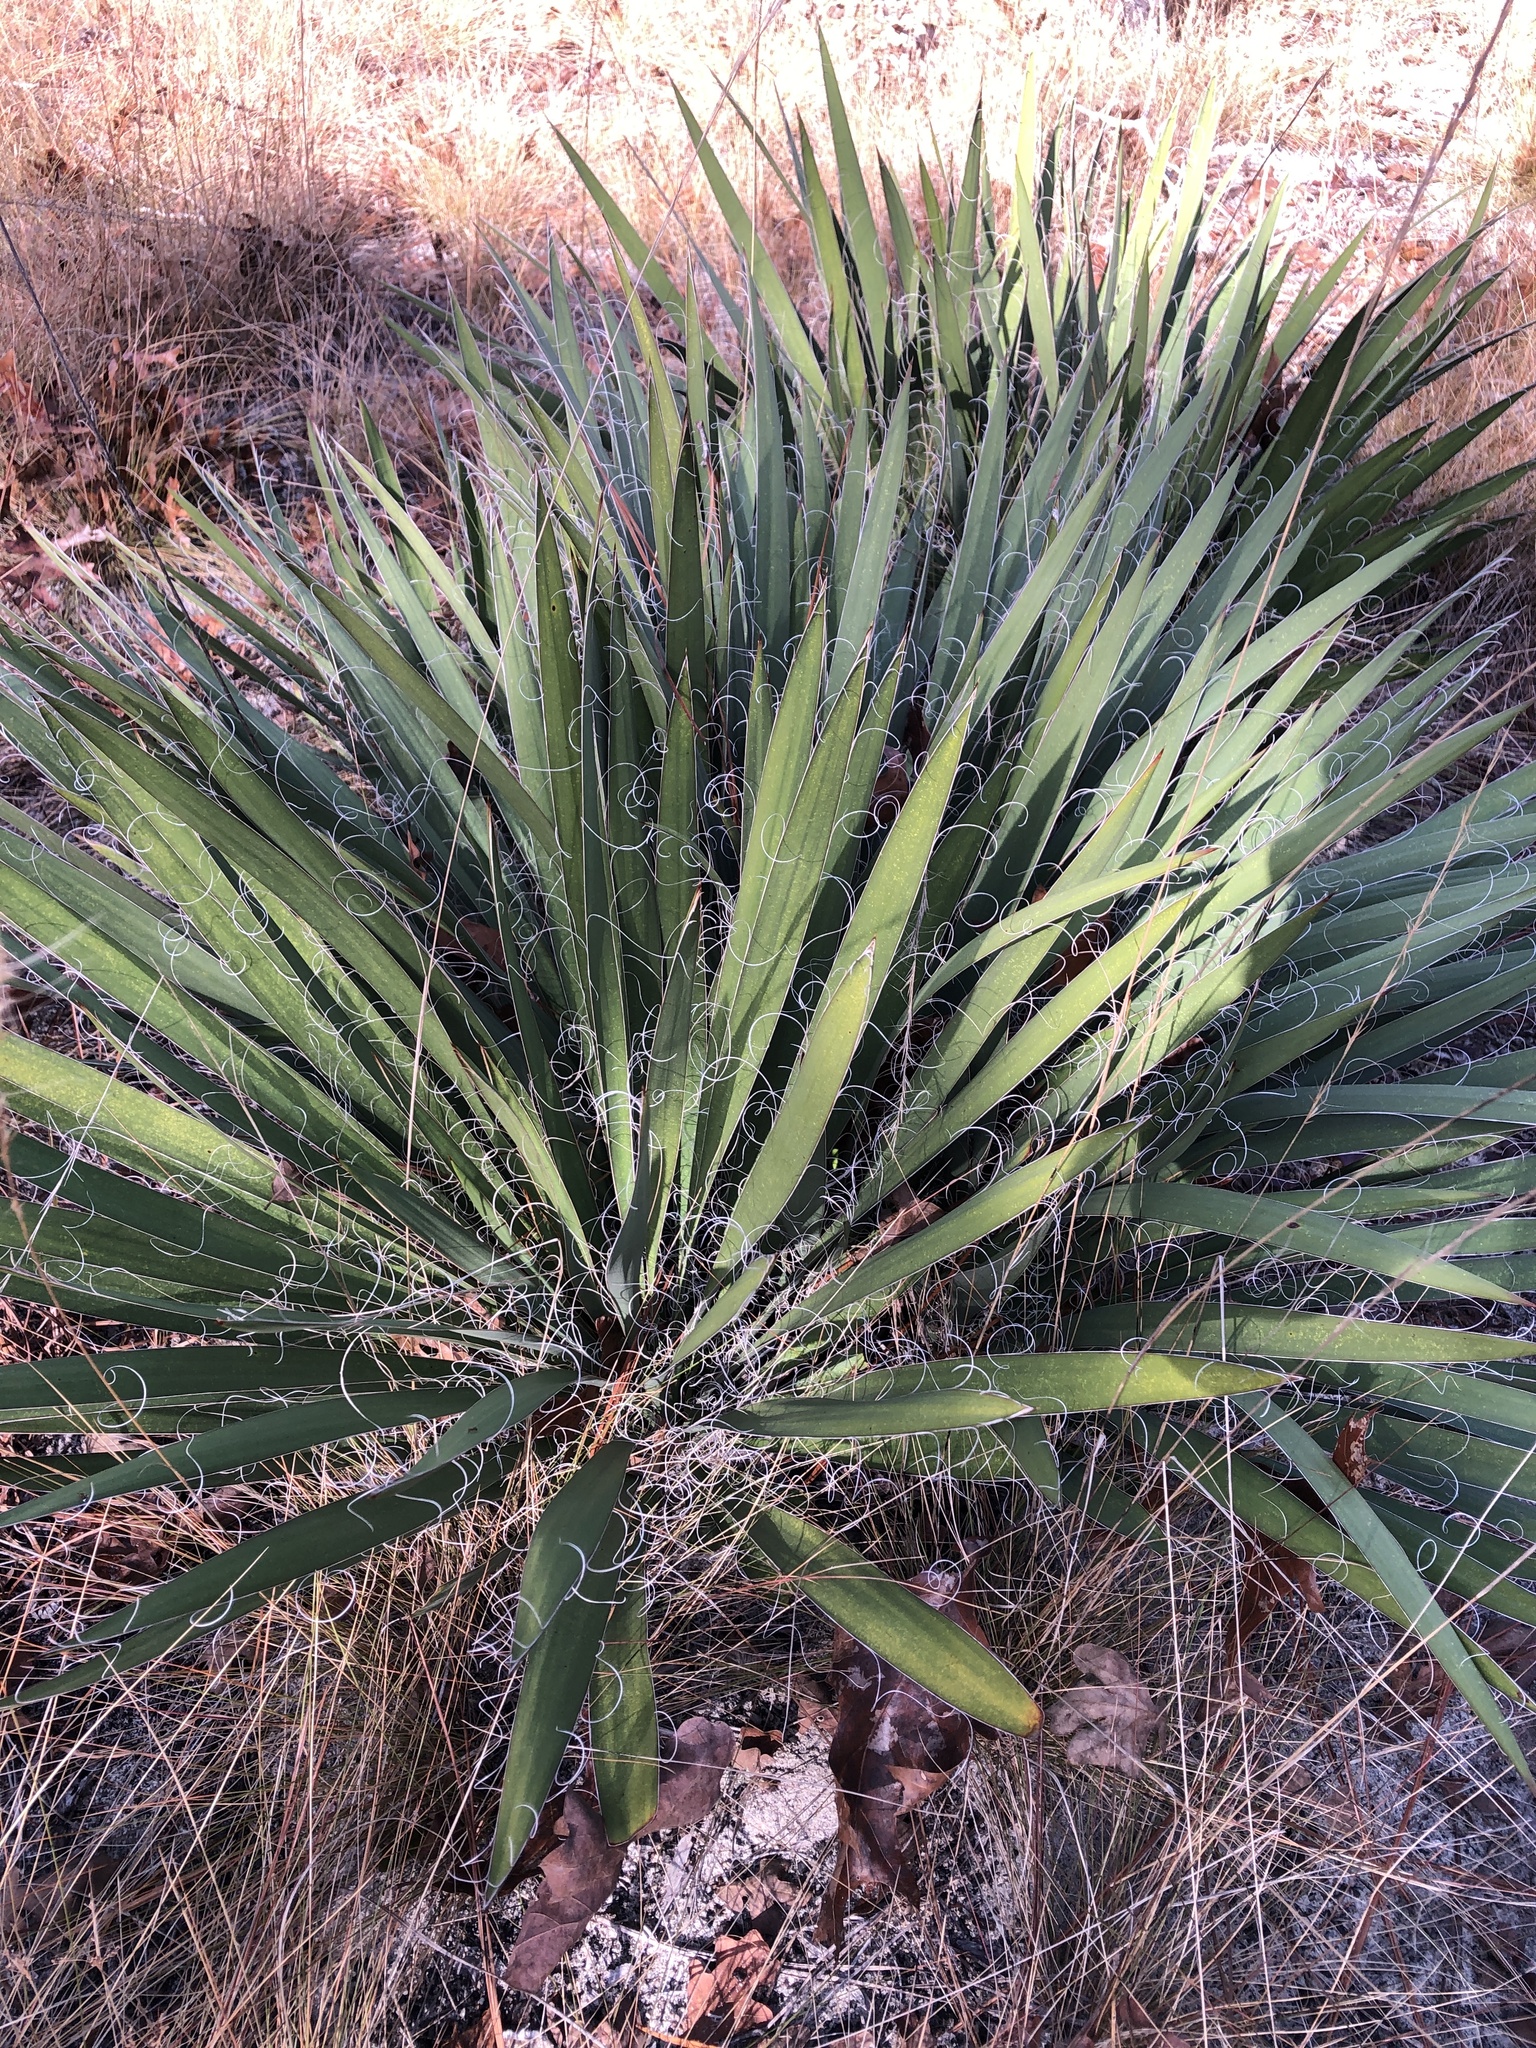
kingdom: Plantae
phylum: Tracheophyta
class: Liliopsida
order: Asparagales
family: Asparagaceae
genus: Yucca
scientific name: Yucca filamentosa
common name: Adam's-needle
